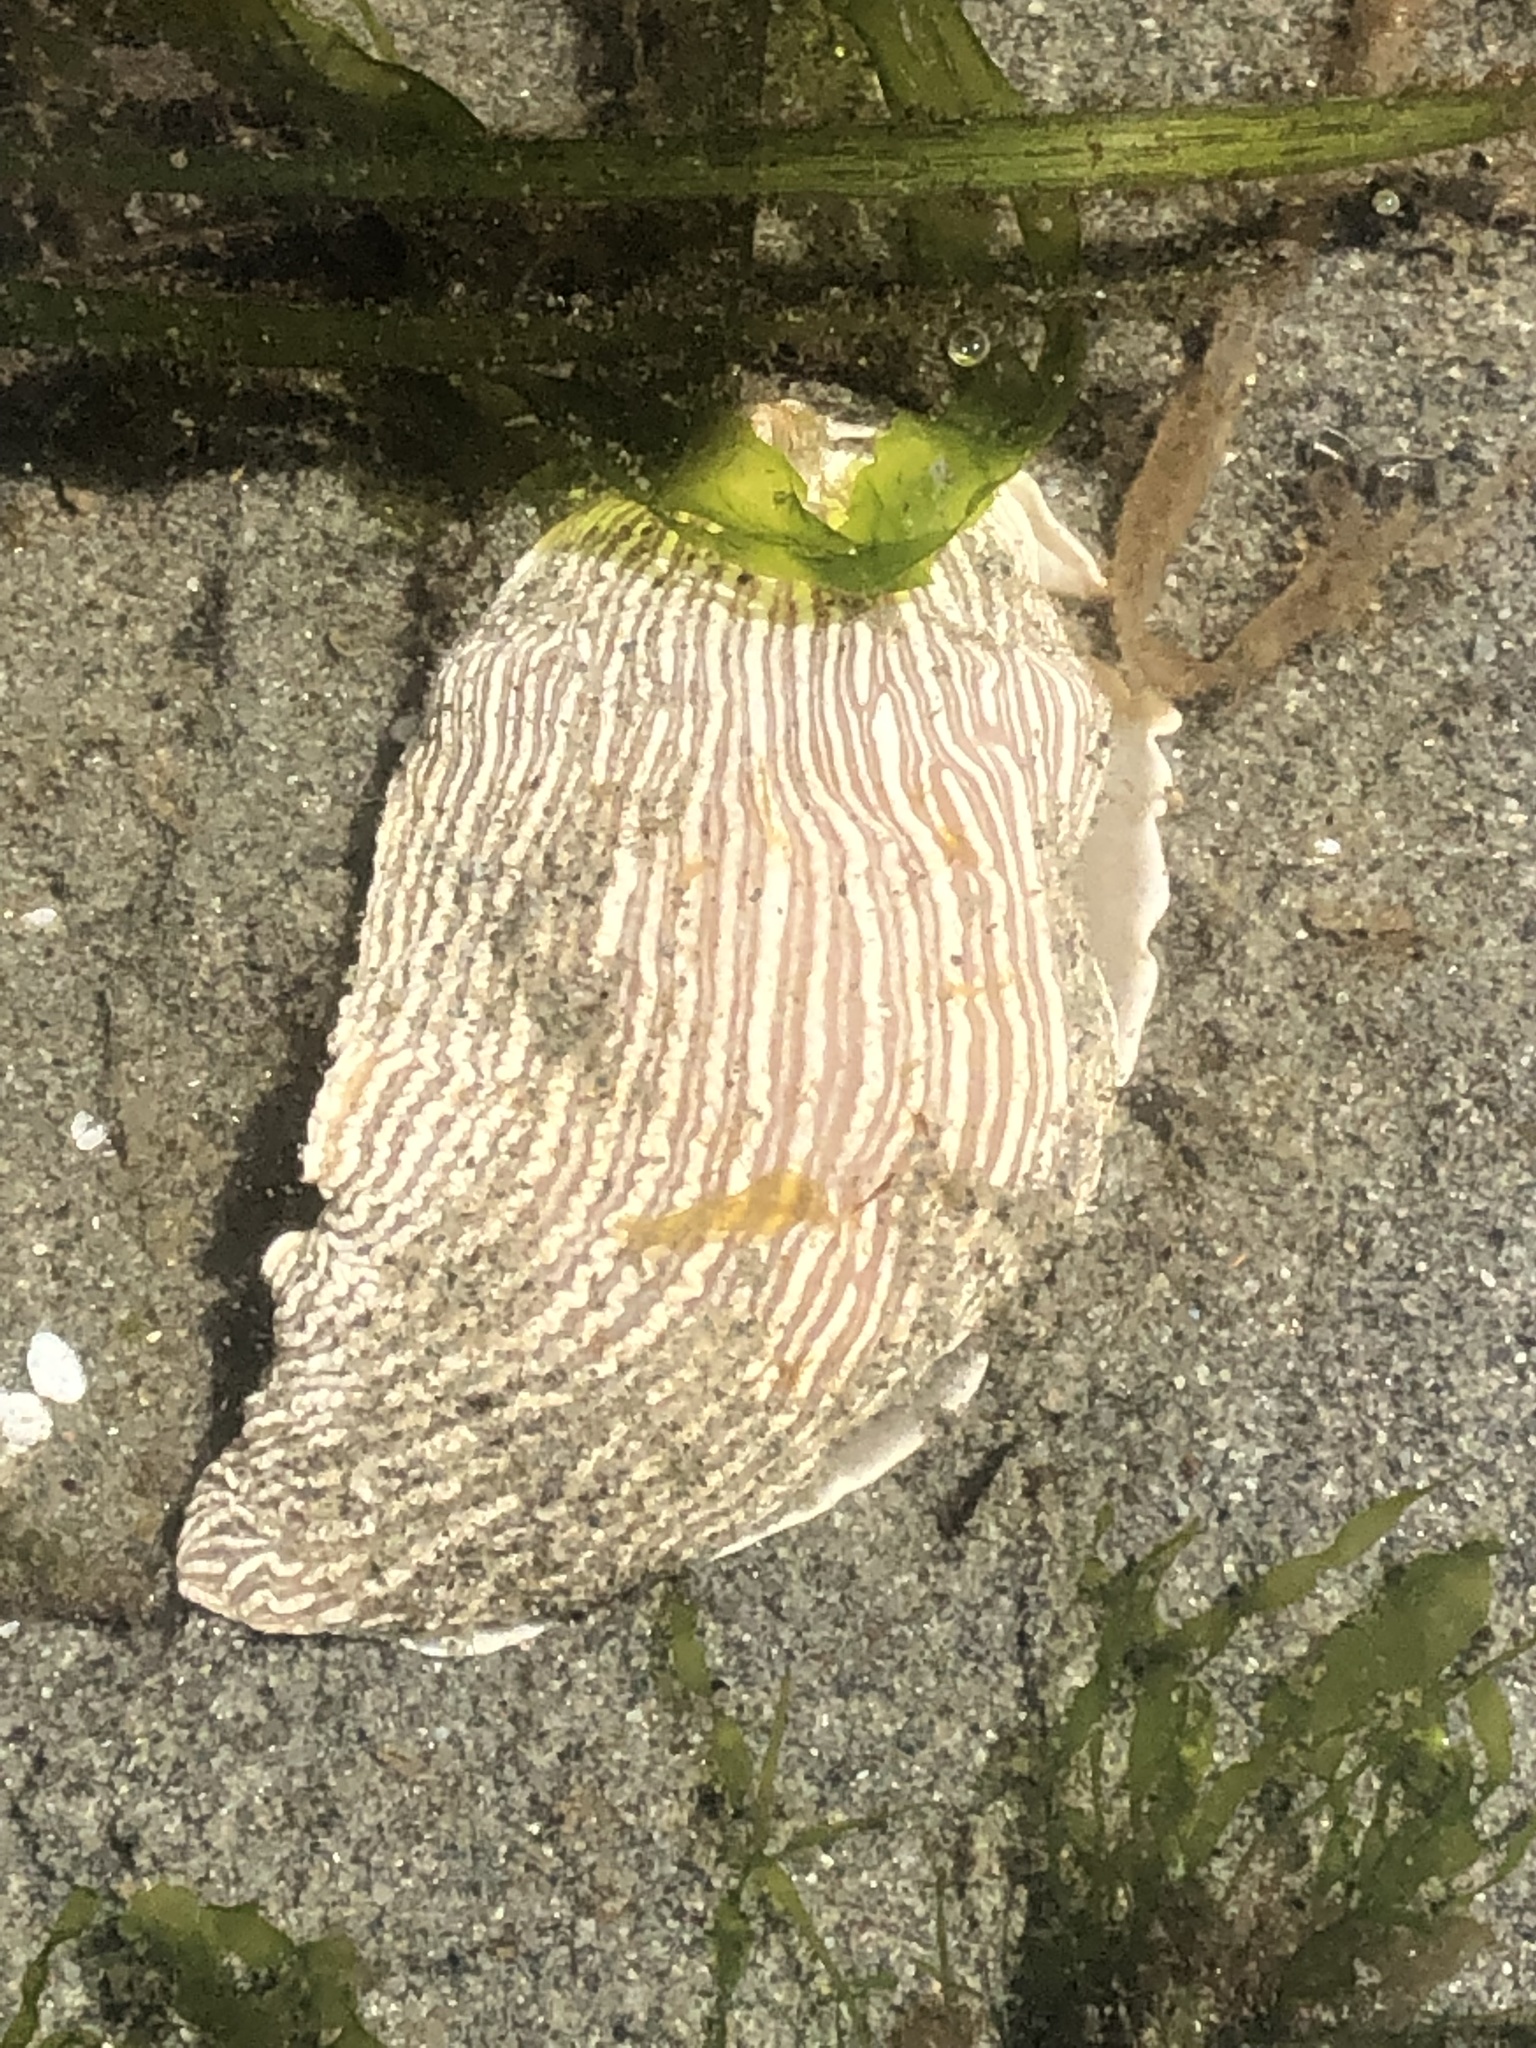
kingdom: Animalia
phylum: Mollusca
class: Gastropoda
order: Nudibranchia
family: Arminidae
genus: Armina
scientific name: Armina californica
